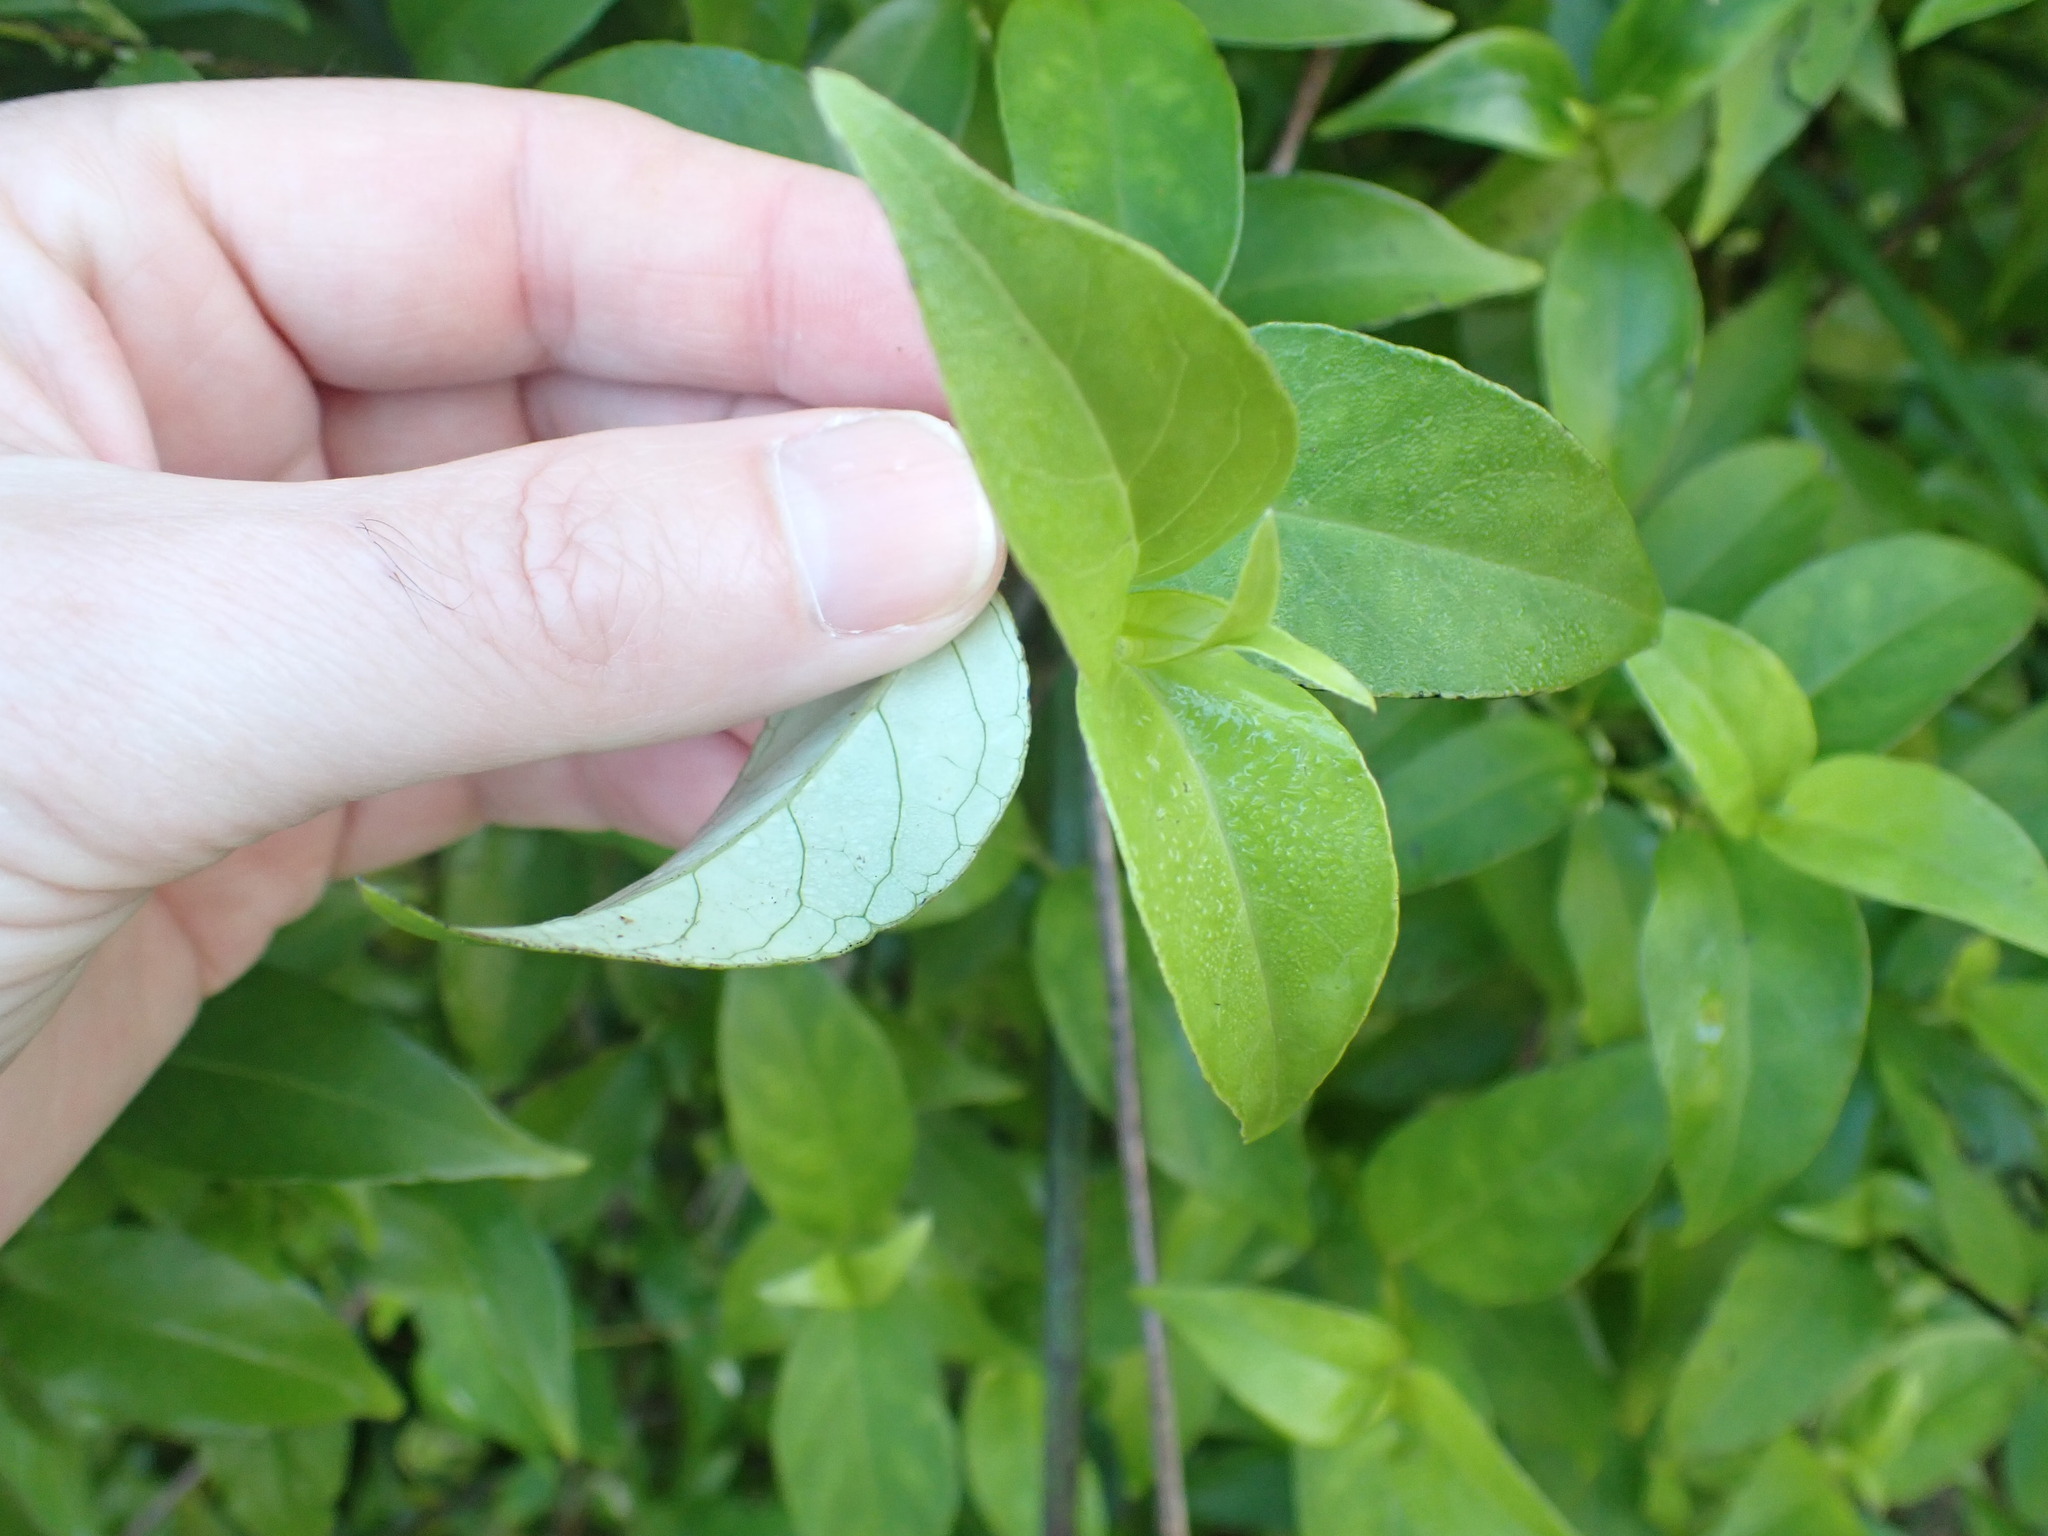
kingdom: Plantae
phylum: Tracheophyta
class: Magnoliopsida
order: Gentianales
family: Loganiaceae
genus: Geniostoma
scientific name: Geniostoma ligustrifolium
